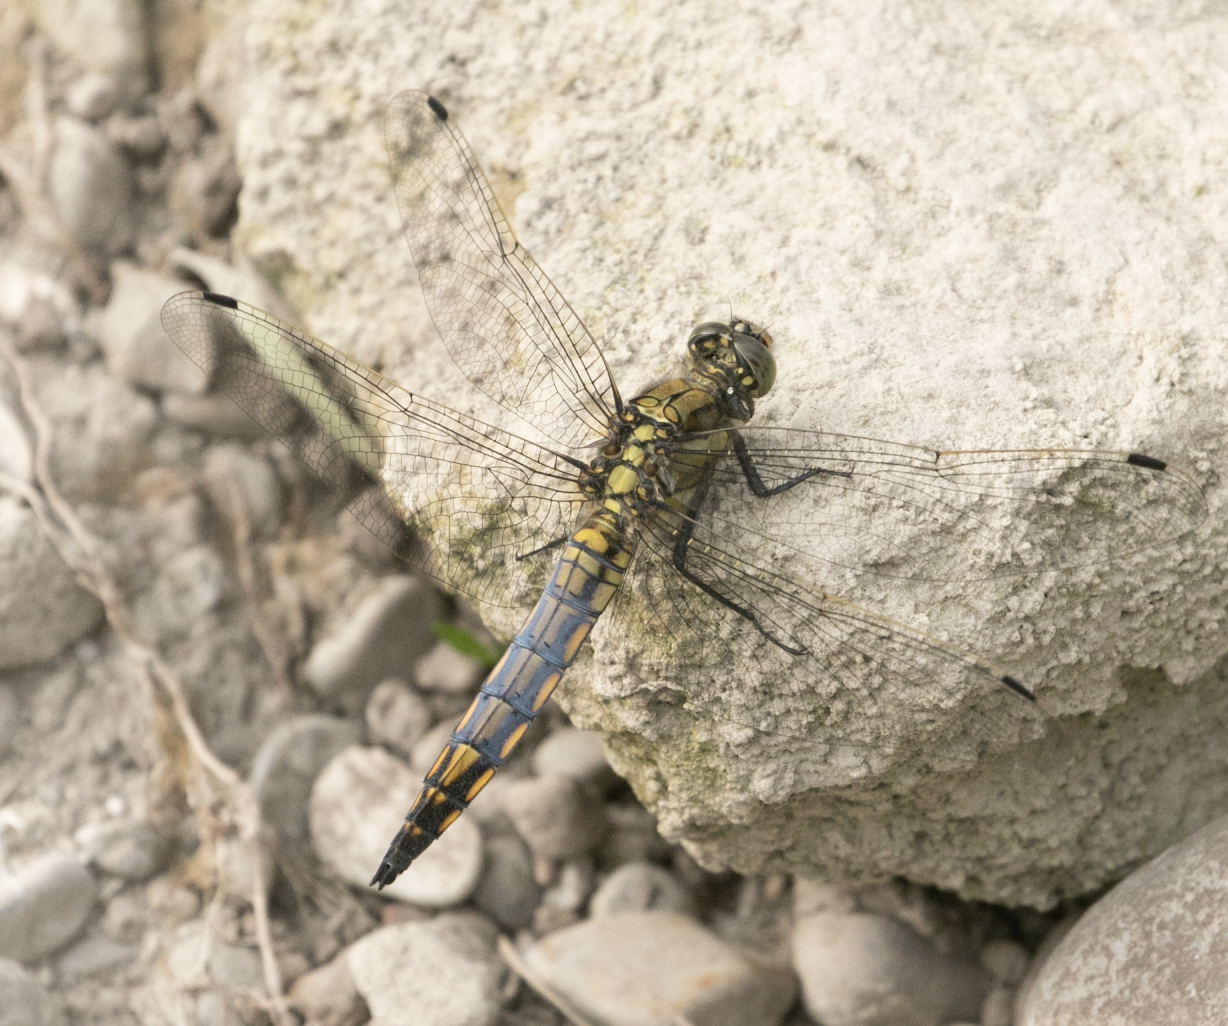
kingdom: Animalia
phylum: Arthropoda
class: Insecta
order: Odonata
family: Libellulidae
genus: Orthetrum
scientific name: Orthetrum cancellatum
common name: Black-tailed skimmer
